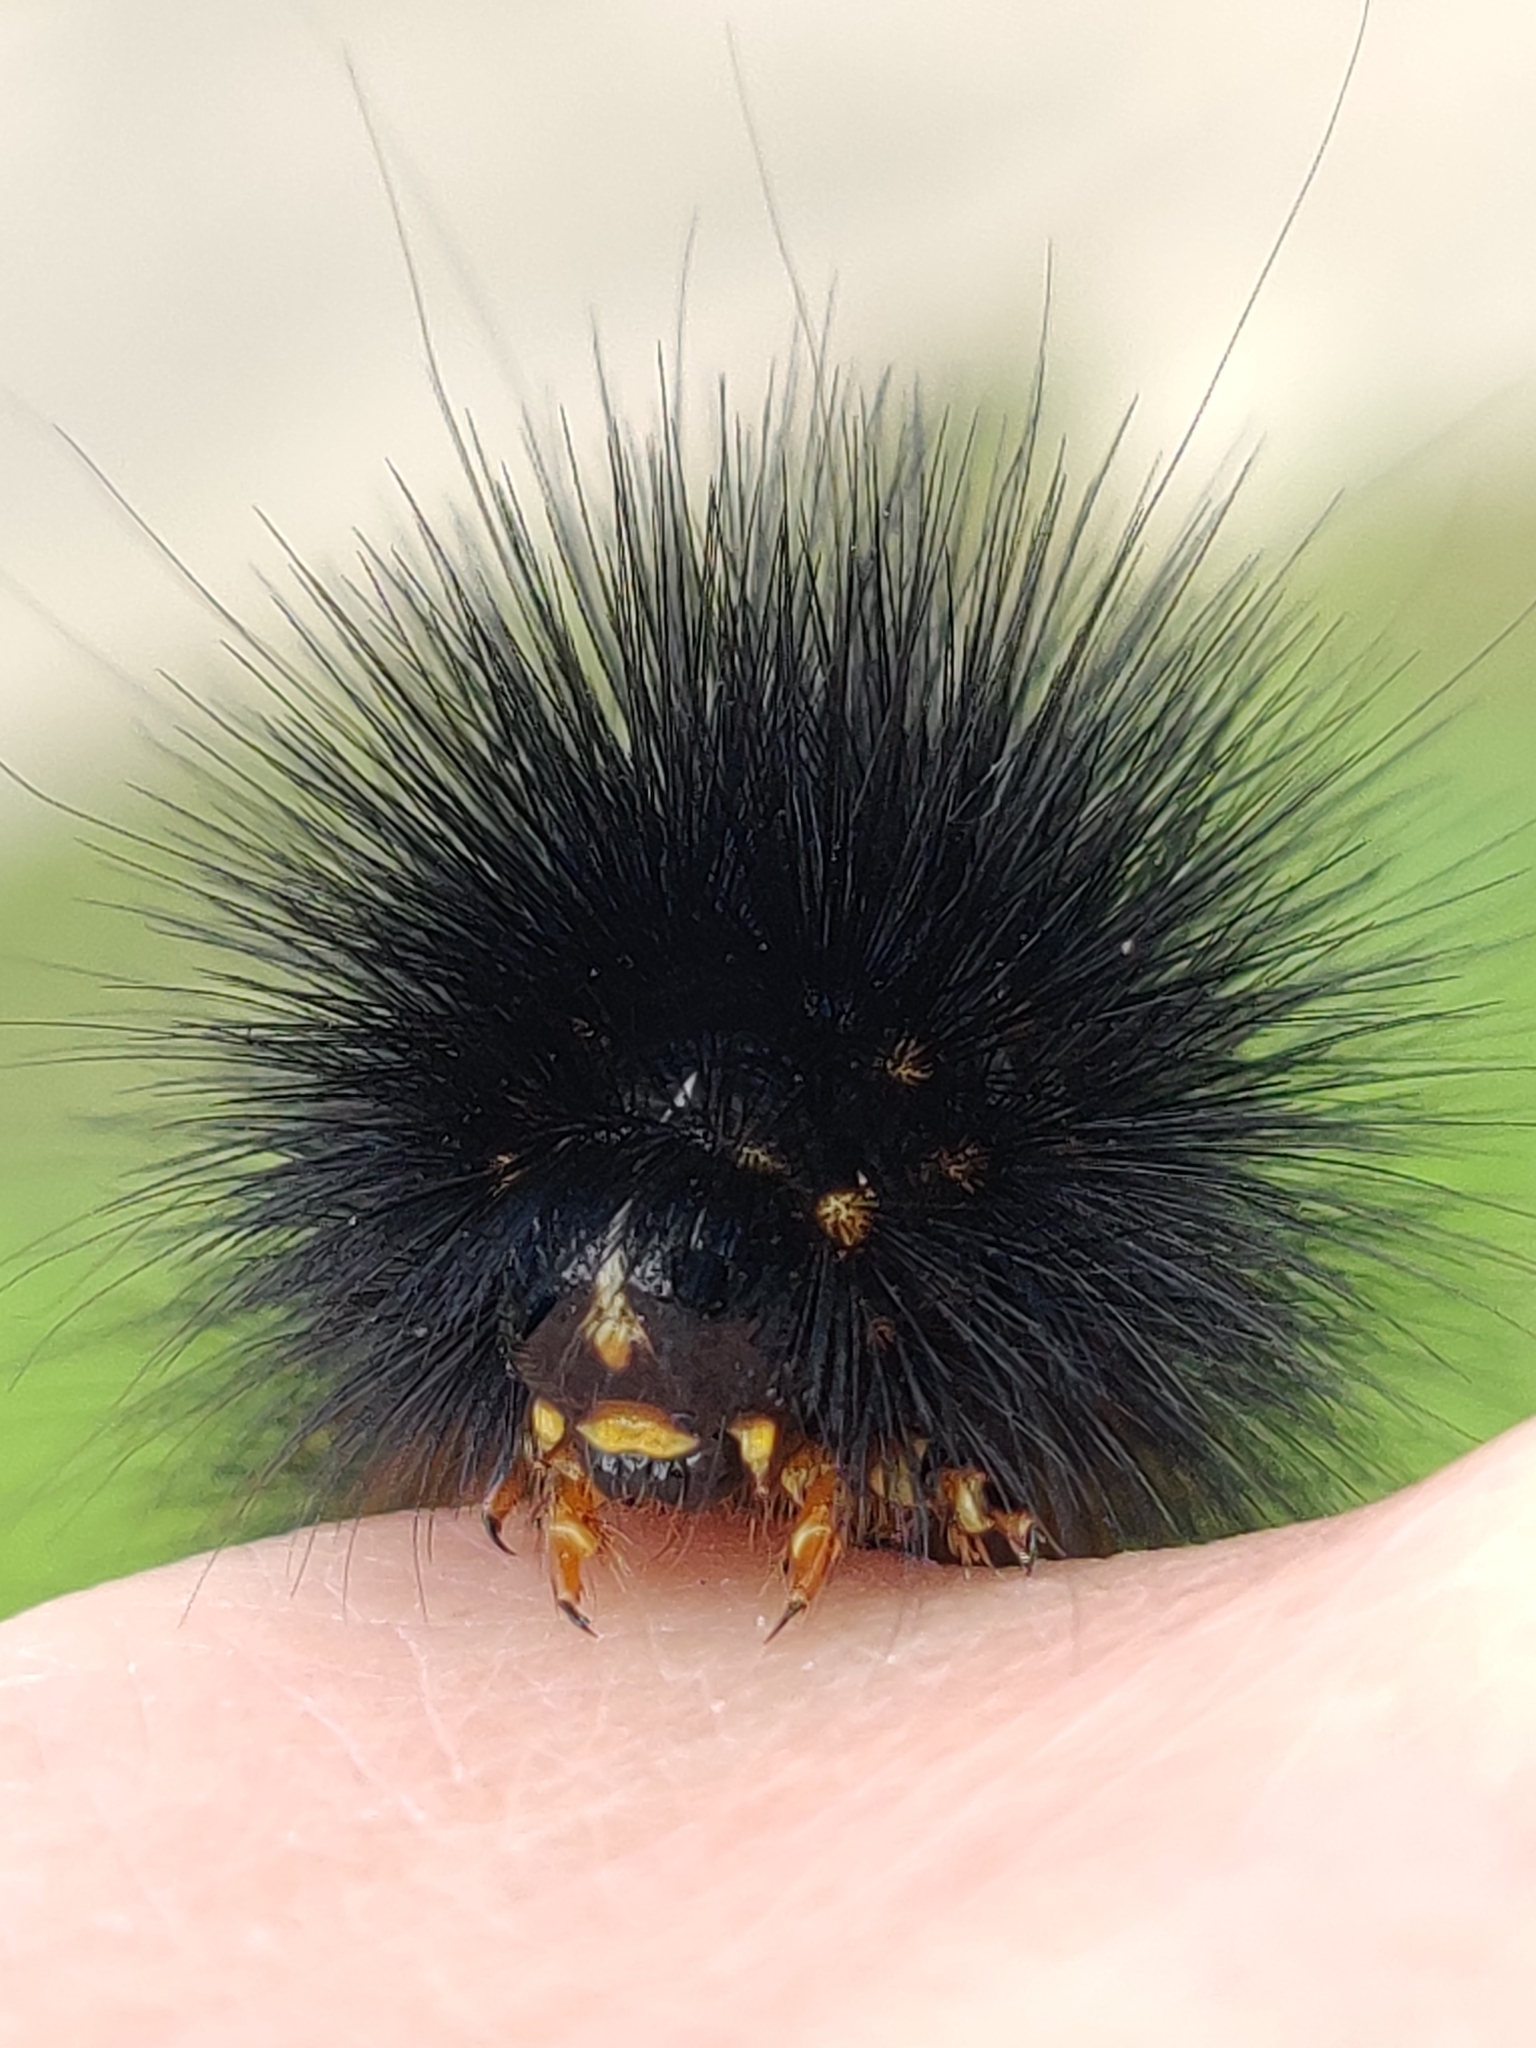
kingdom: Animalia
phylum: Arthropoda
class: Insecta
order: Lepidoptera
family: Erebidae
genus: Estigmene
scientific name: Estigmene acrea
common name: Salt marsh moth
